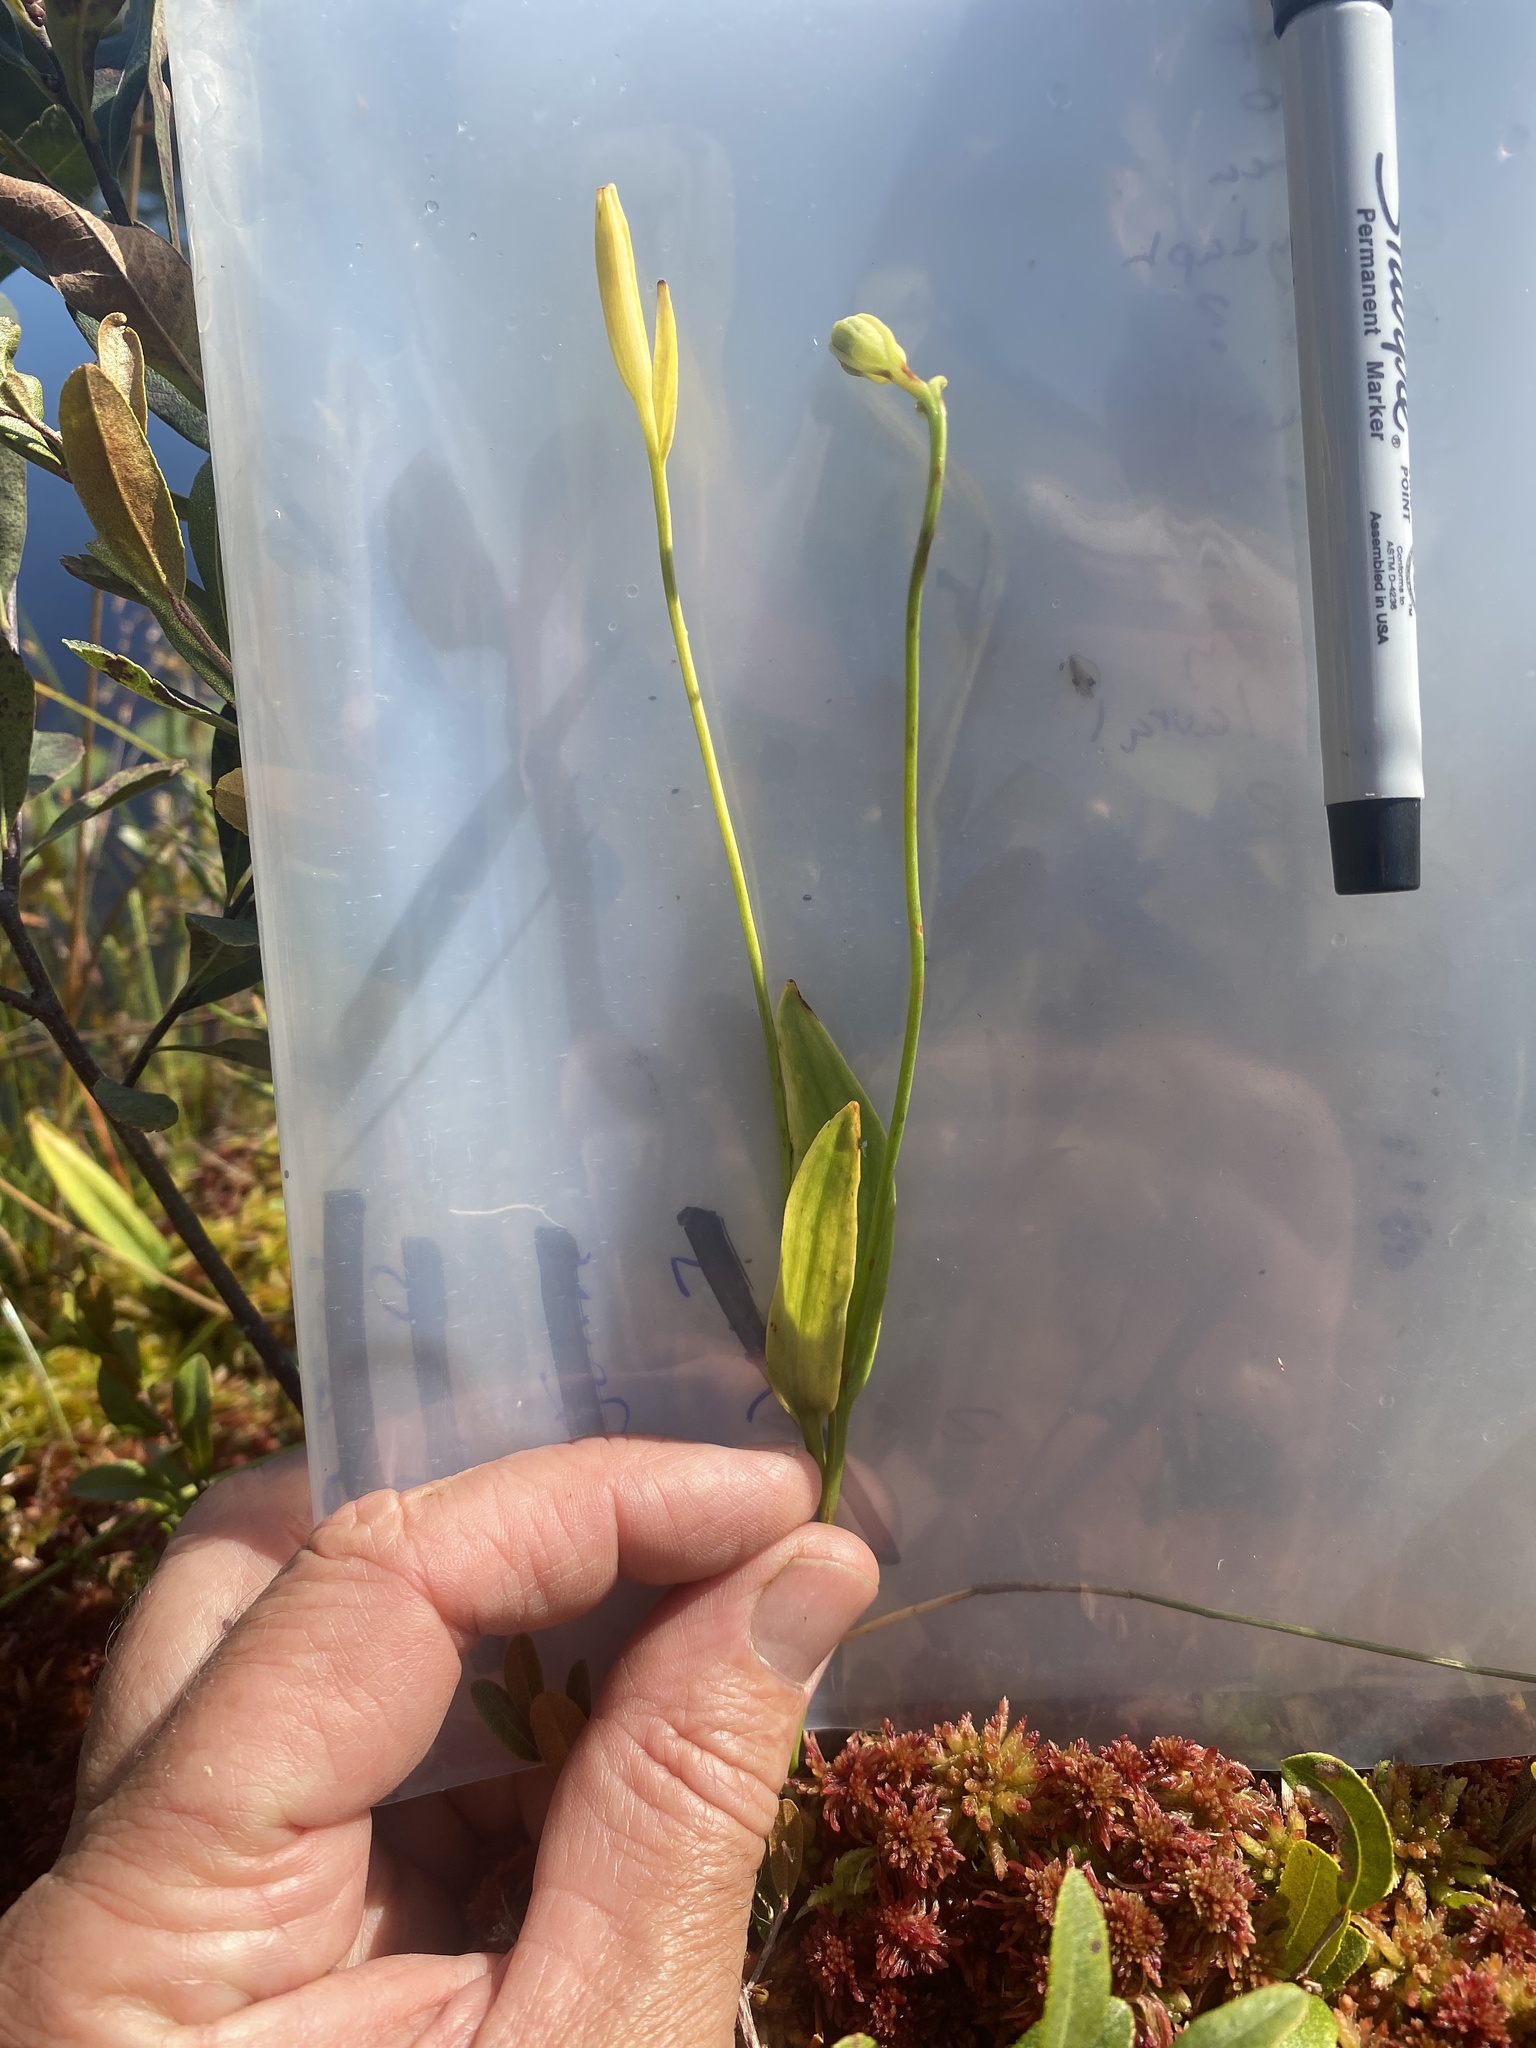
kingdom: Plantae
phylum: Tracheophyta
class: Liliopsida
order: Asparagales
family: Orchidaceae
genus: Pogonia
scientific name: Pogonia ophioglossoides
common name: Rose pogonia
